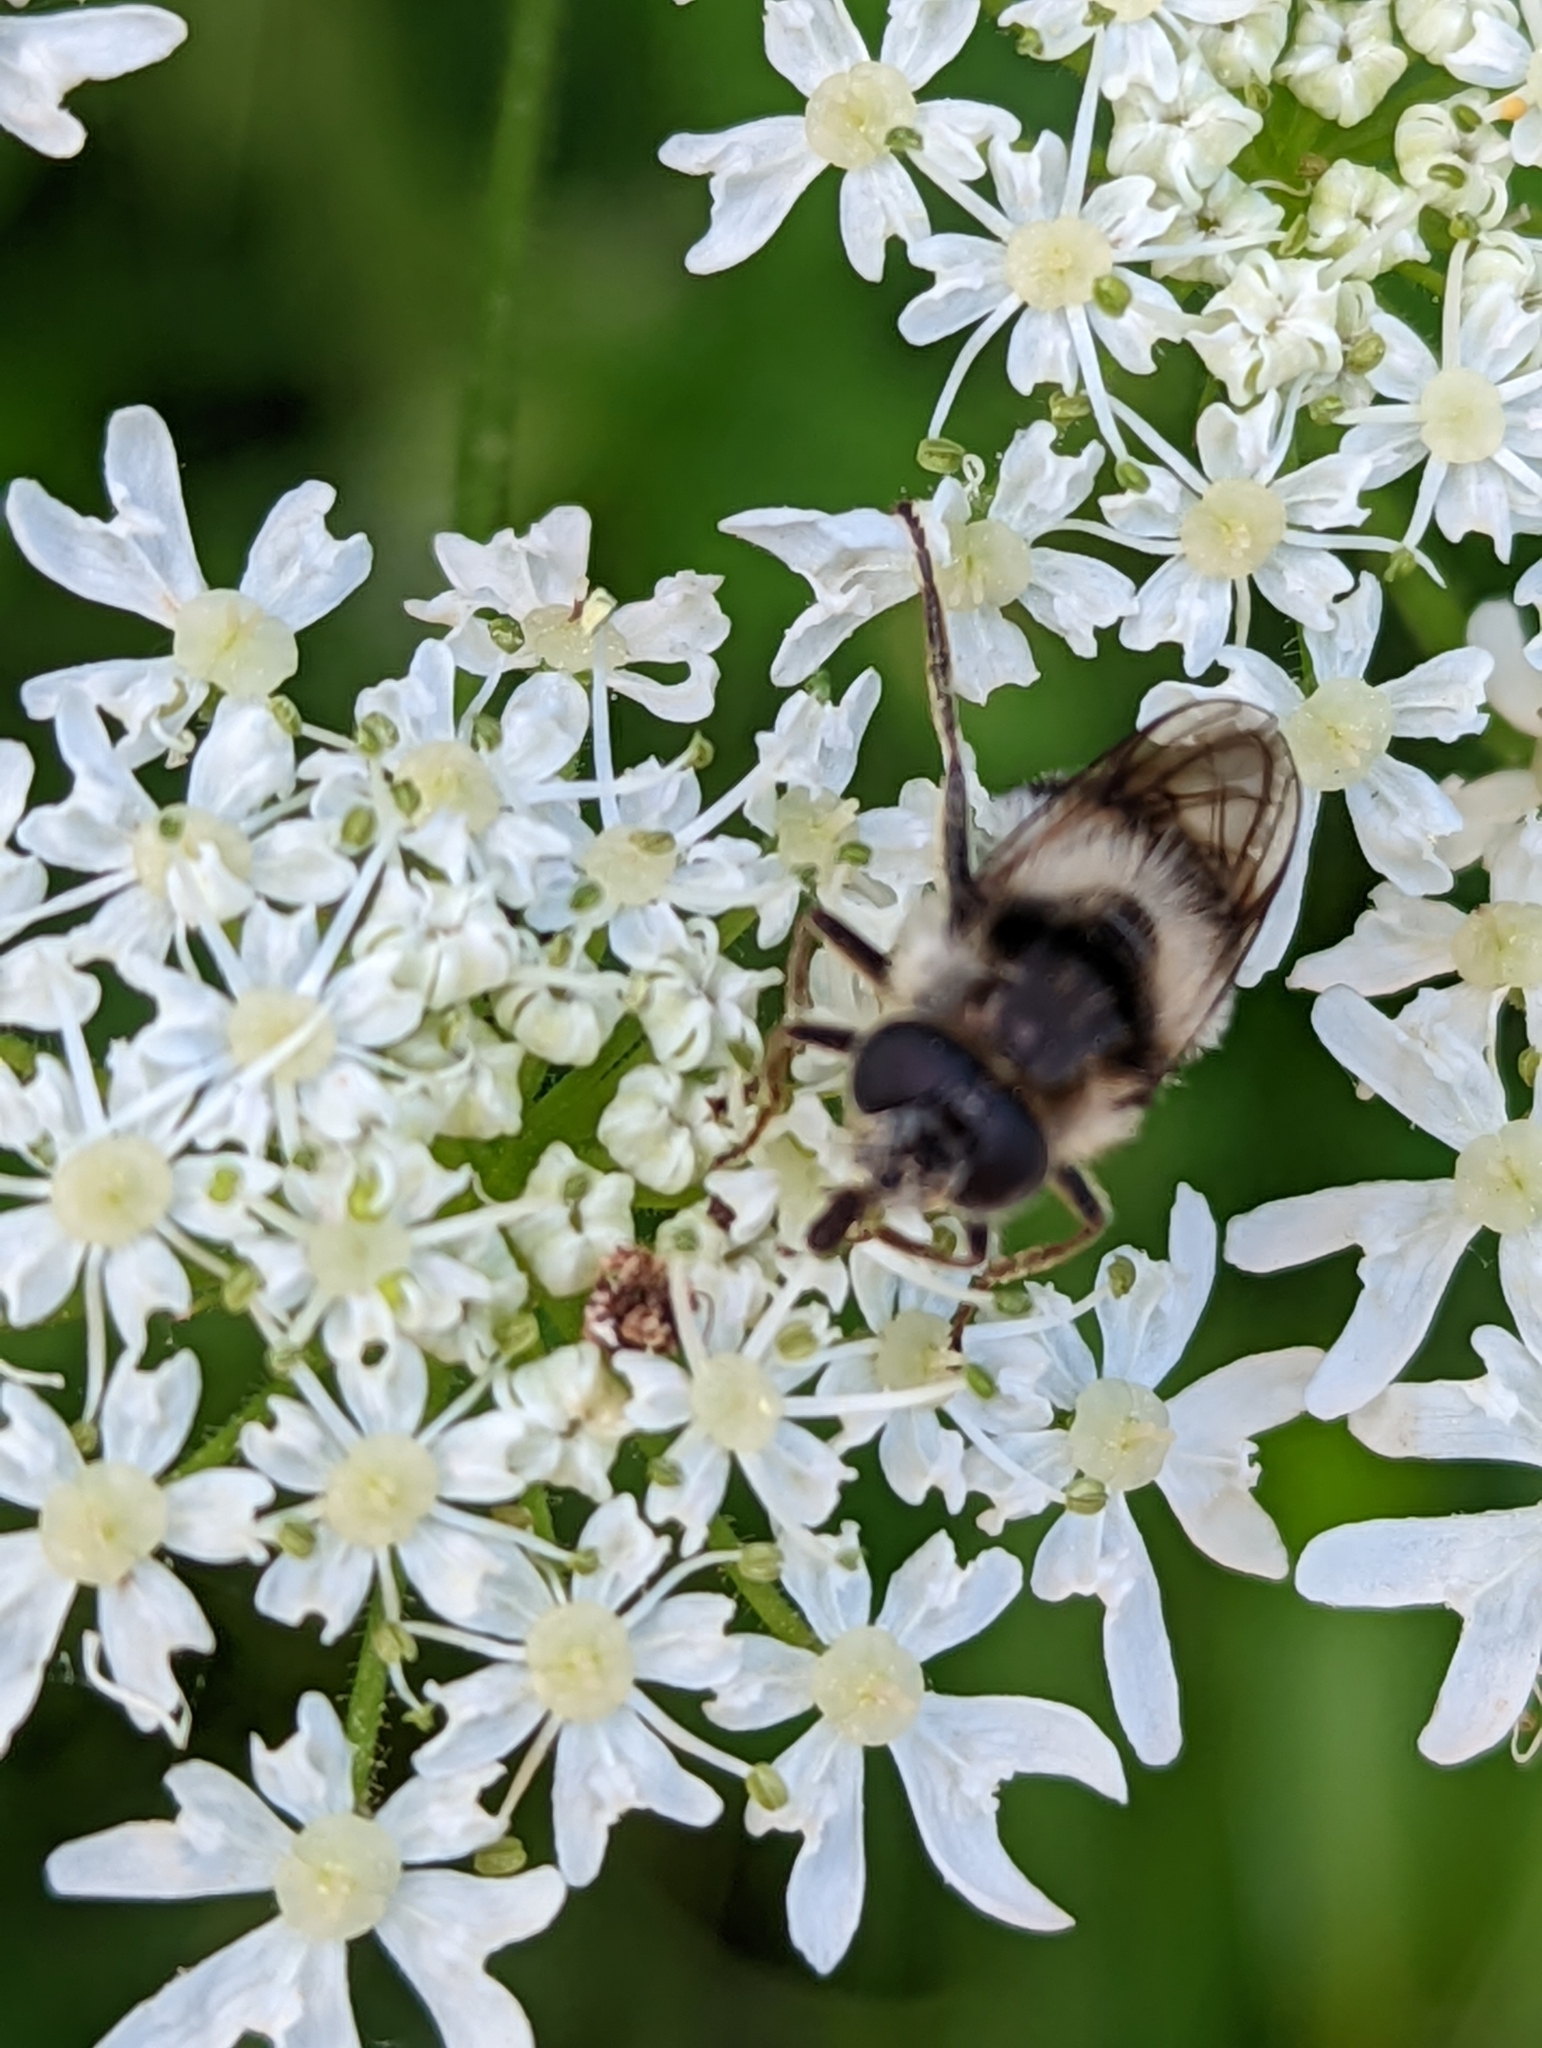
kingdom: Animalia
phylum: Arthropoda
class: Insecta
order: Diptera
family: Syrphidae
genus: Cheilosia
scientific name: Cheilosia illustrata
